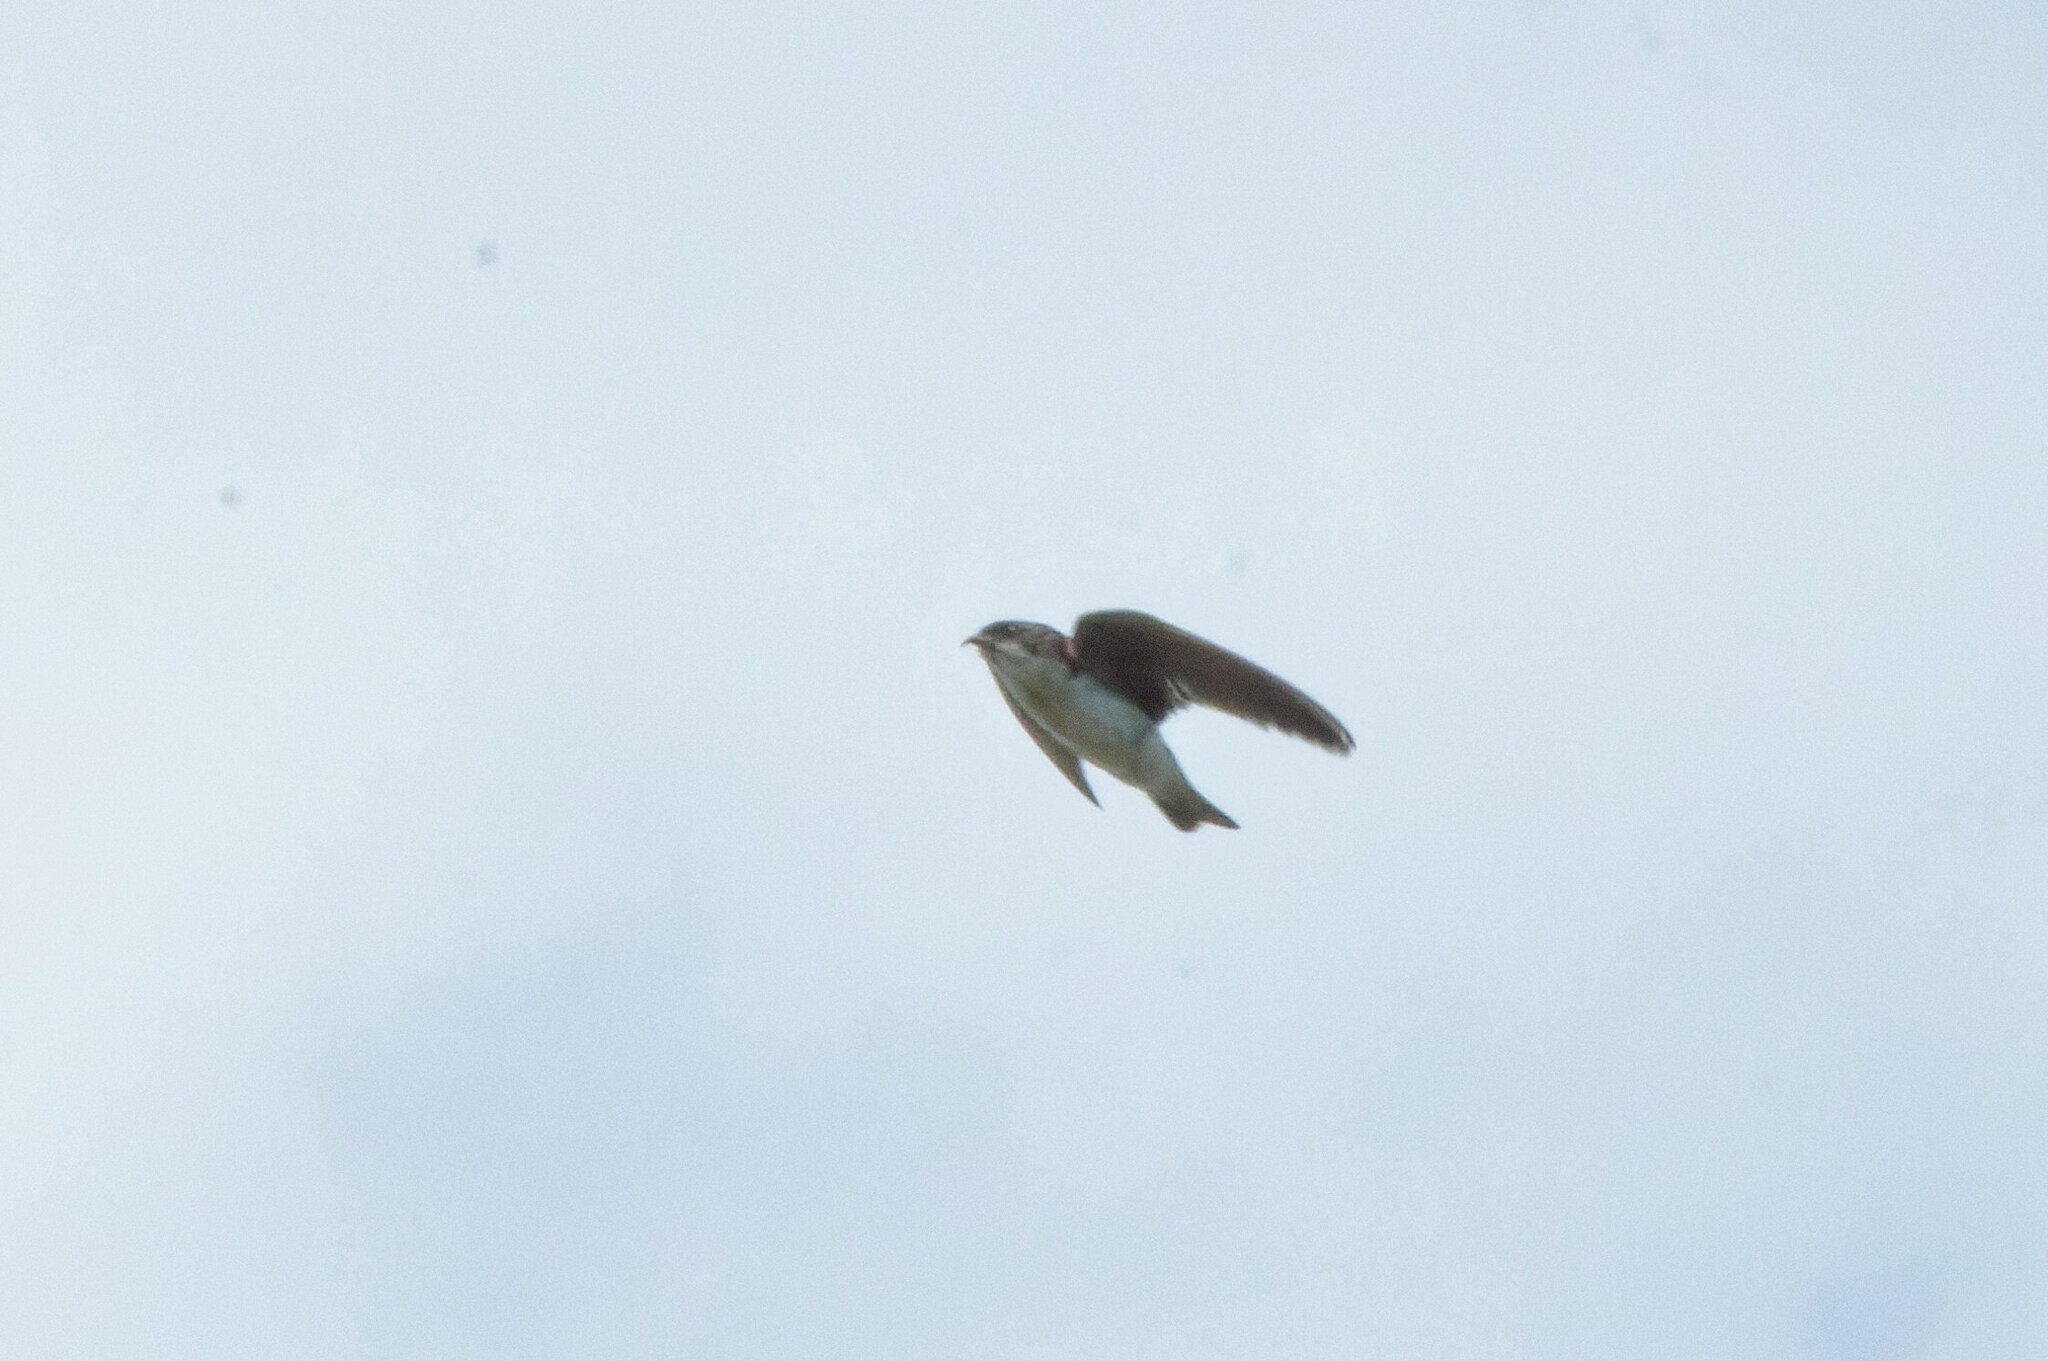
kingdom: Animalia
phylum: Chordata
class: Aves
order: Passeriformes
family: Hirundinidae
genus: Tachycineta
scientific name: Tachycineta bicolor
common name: Tree swallow
